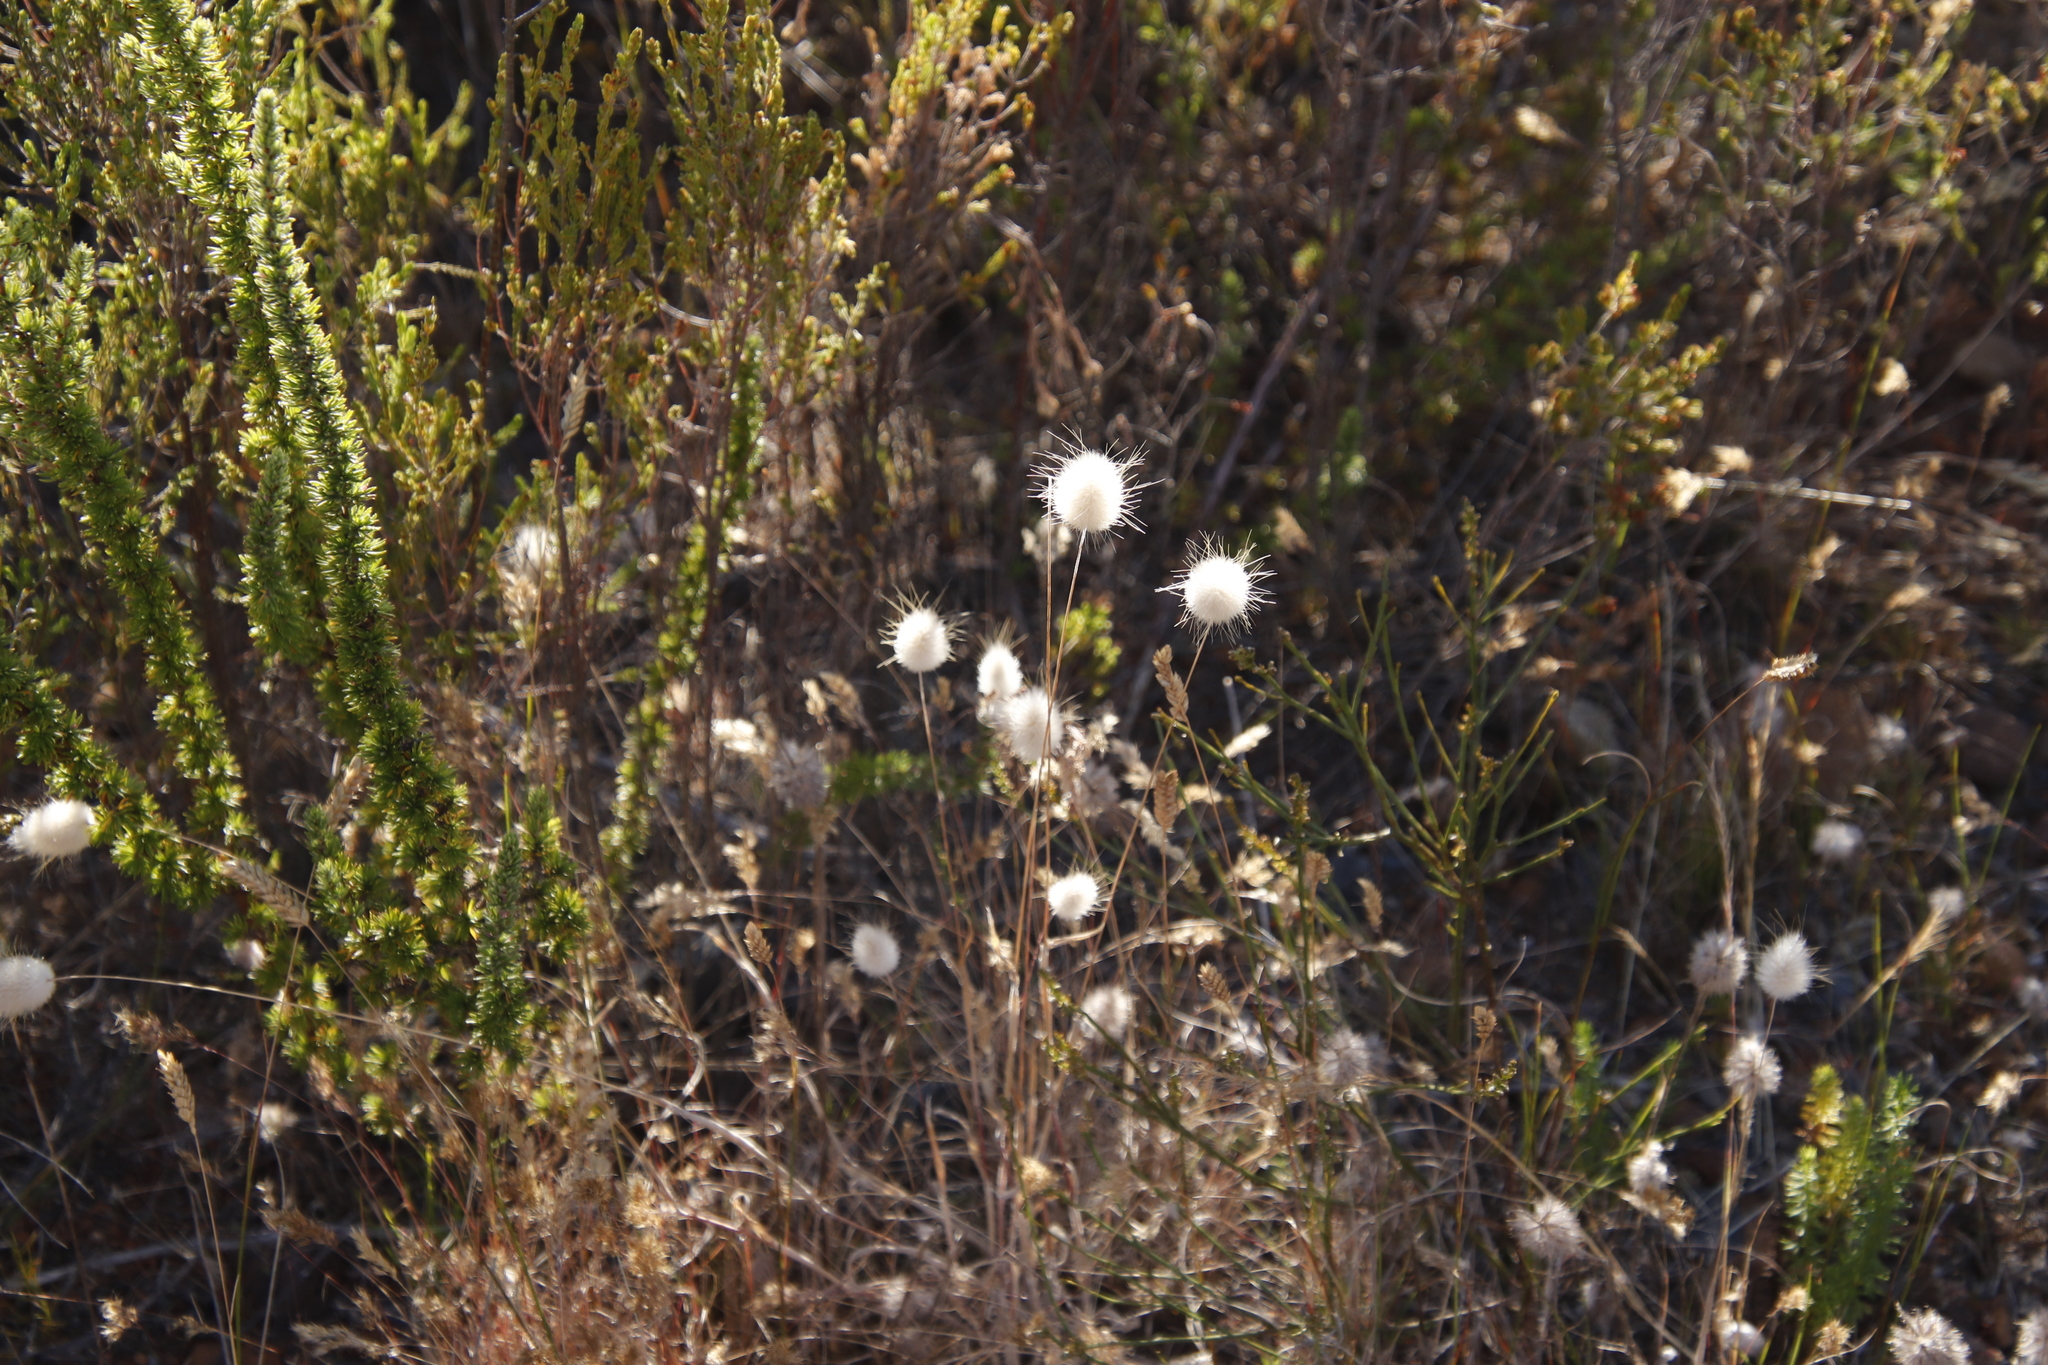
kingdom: Plantae
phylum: Tracheophyta
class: Liliopsida
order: Poales
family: Poaceae
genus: Lagurus
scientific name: Lagurus ovatus
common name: Hare's-tail
